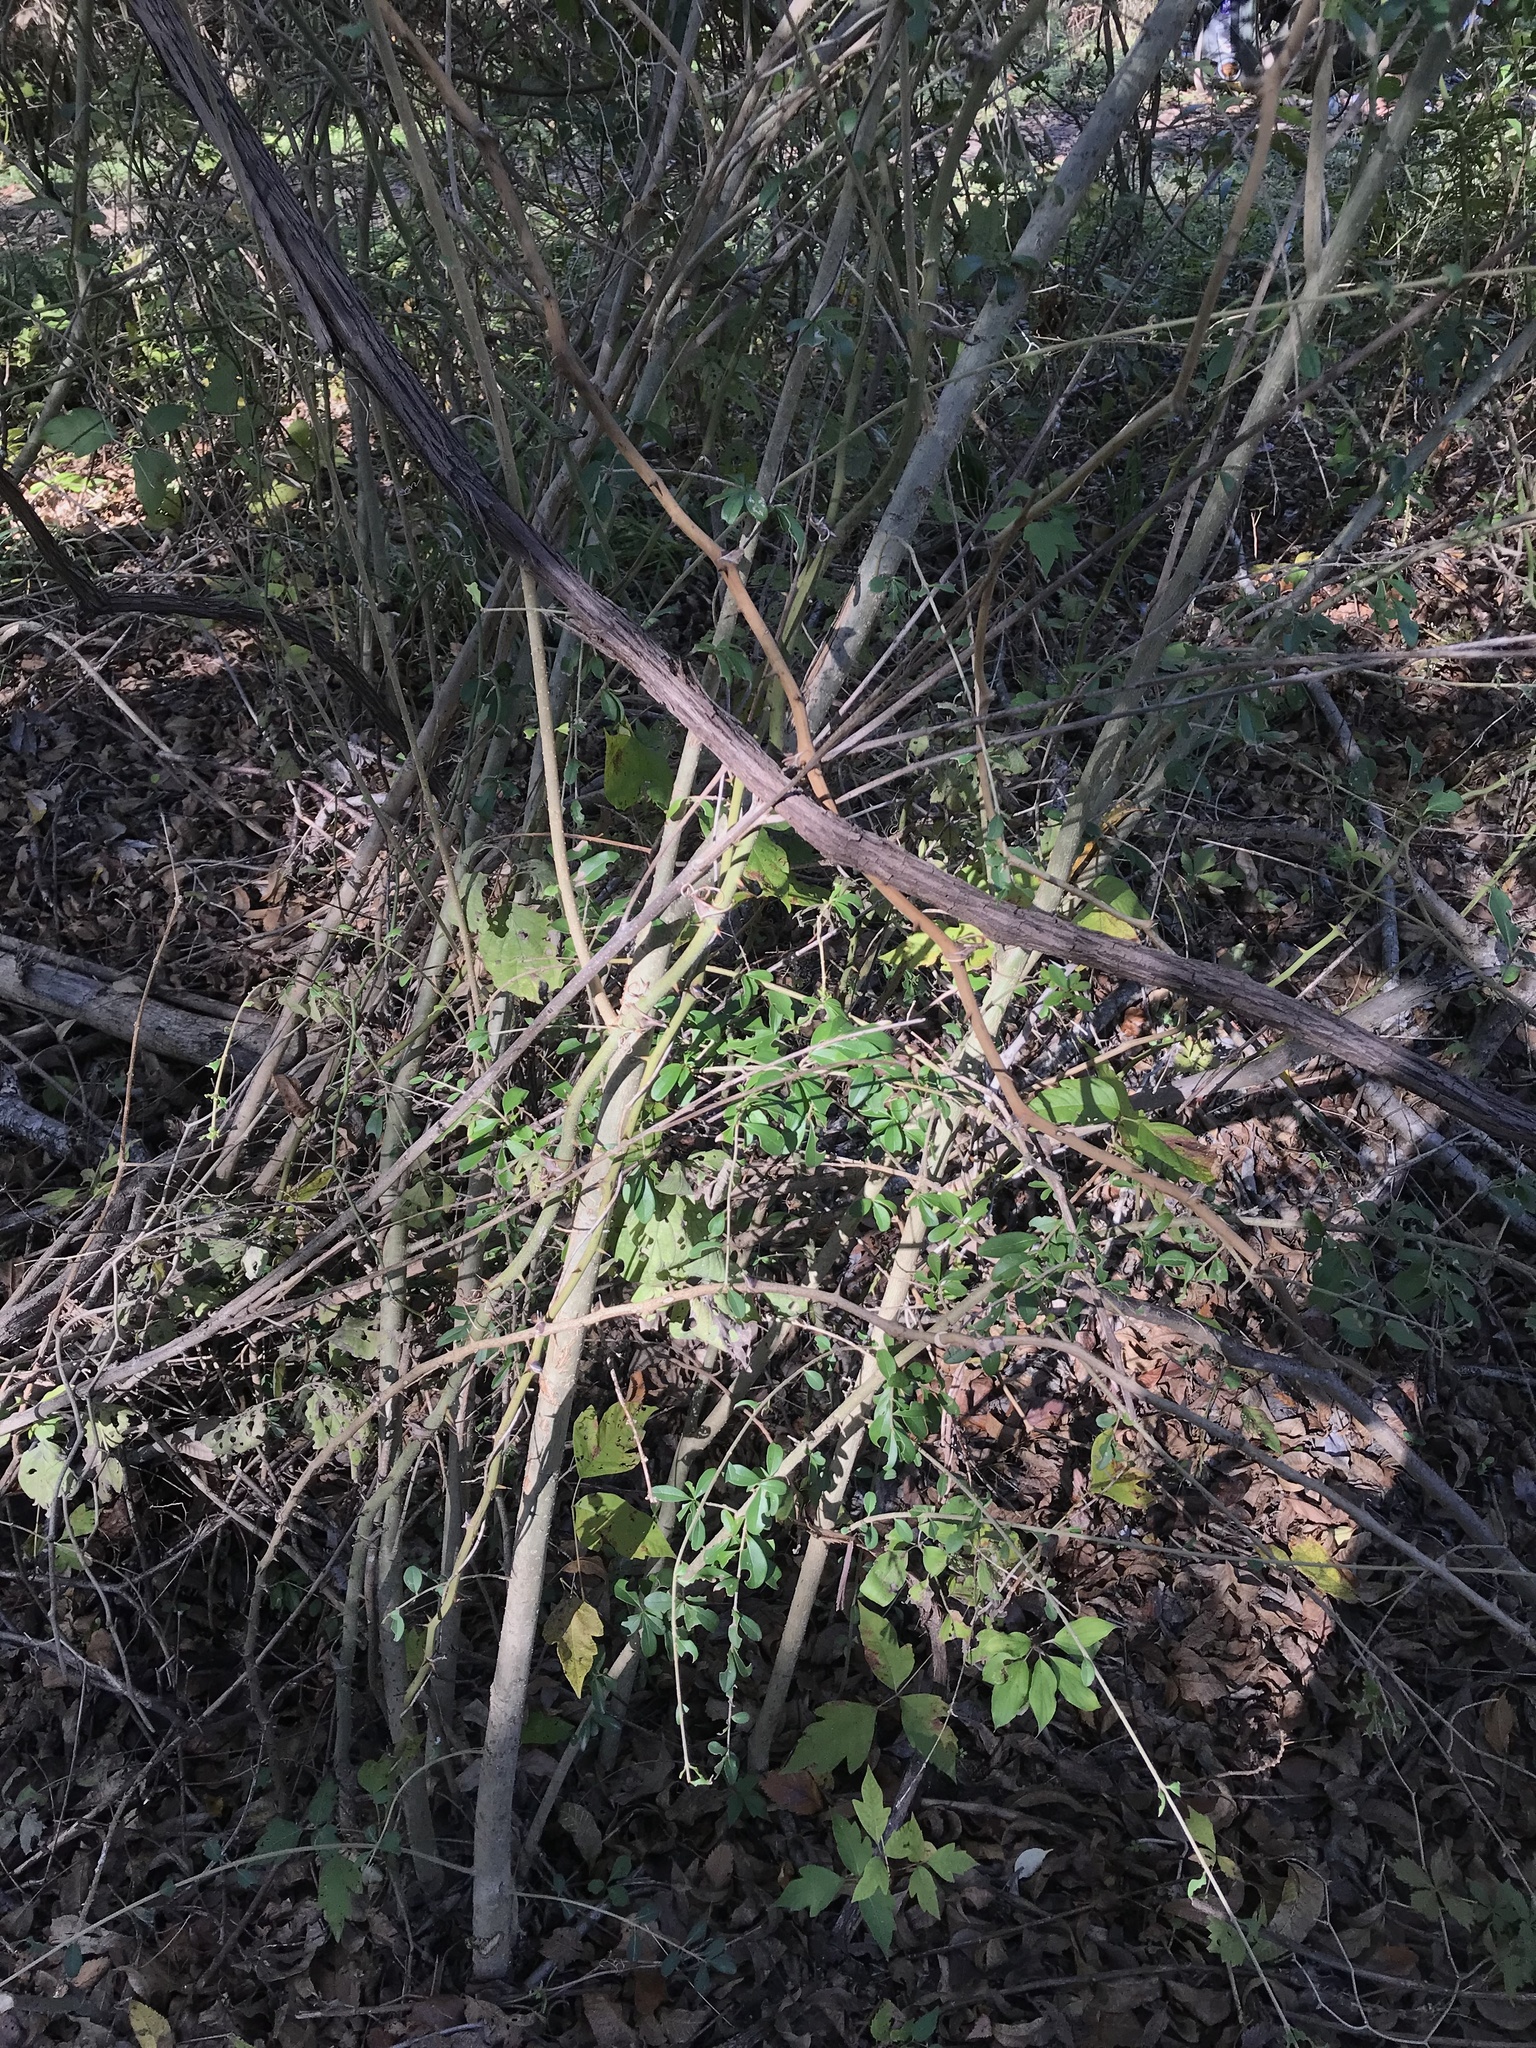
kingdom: Plantae
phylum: Tracheophyta
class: Magnoliopsida
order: Lamiales
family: Oleaceae
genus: Ligustrum
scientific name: Ligustrum quihoui
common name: Waxyleaf privet
